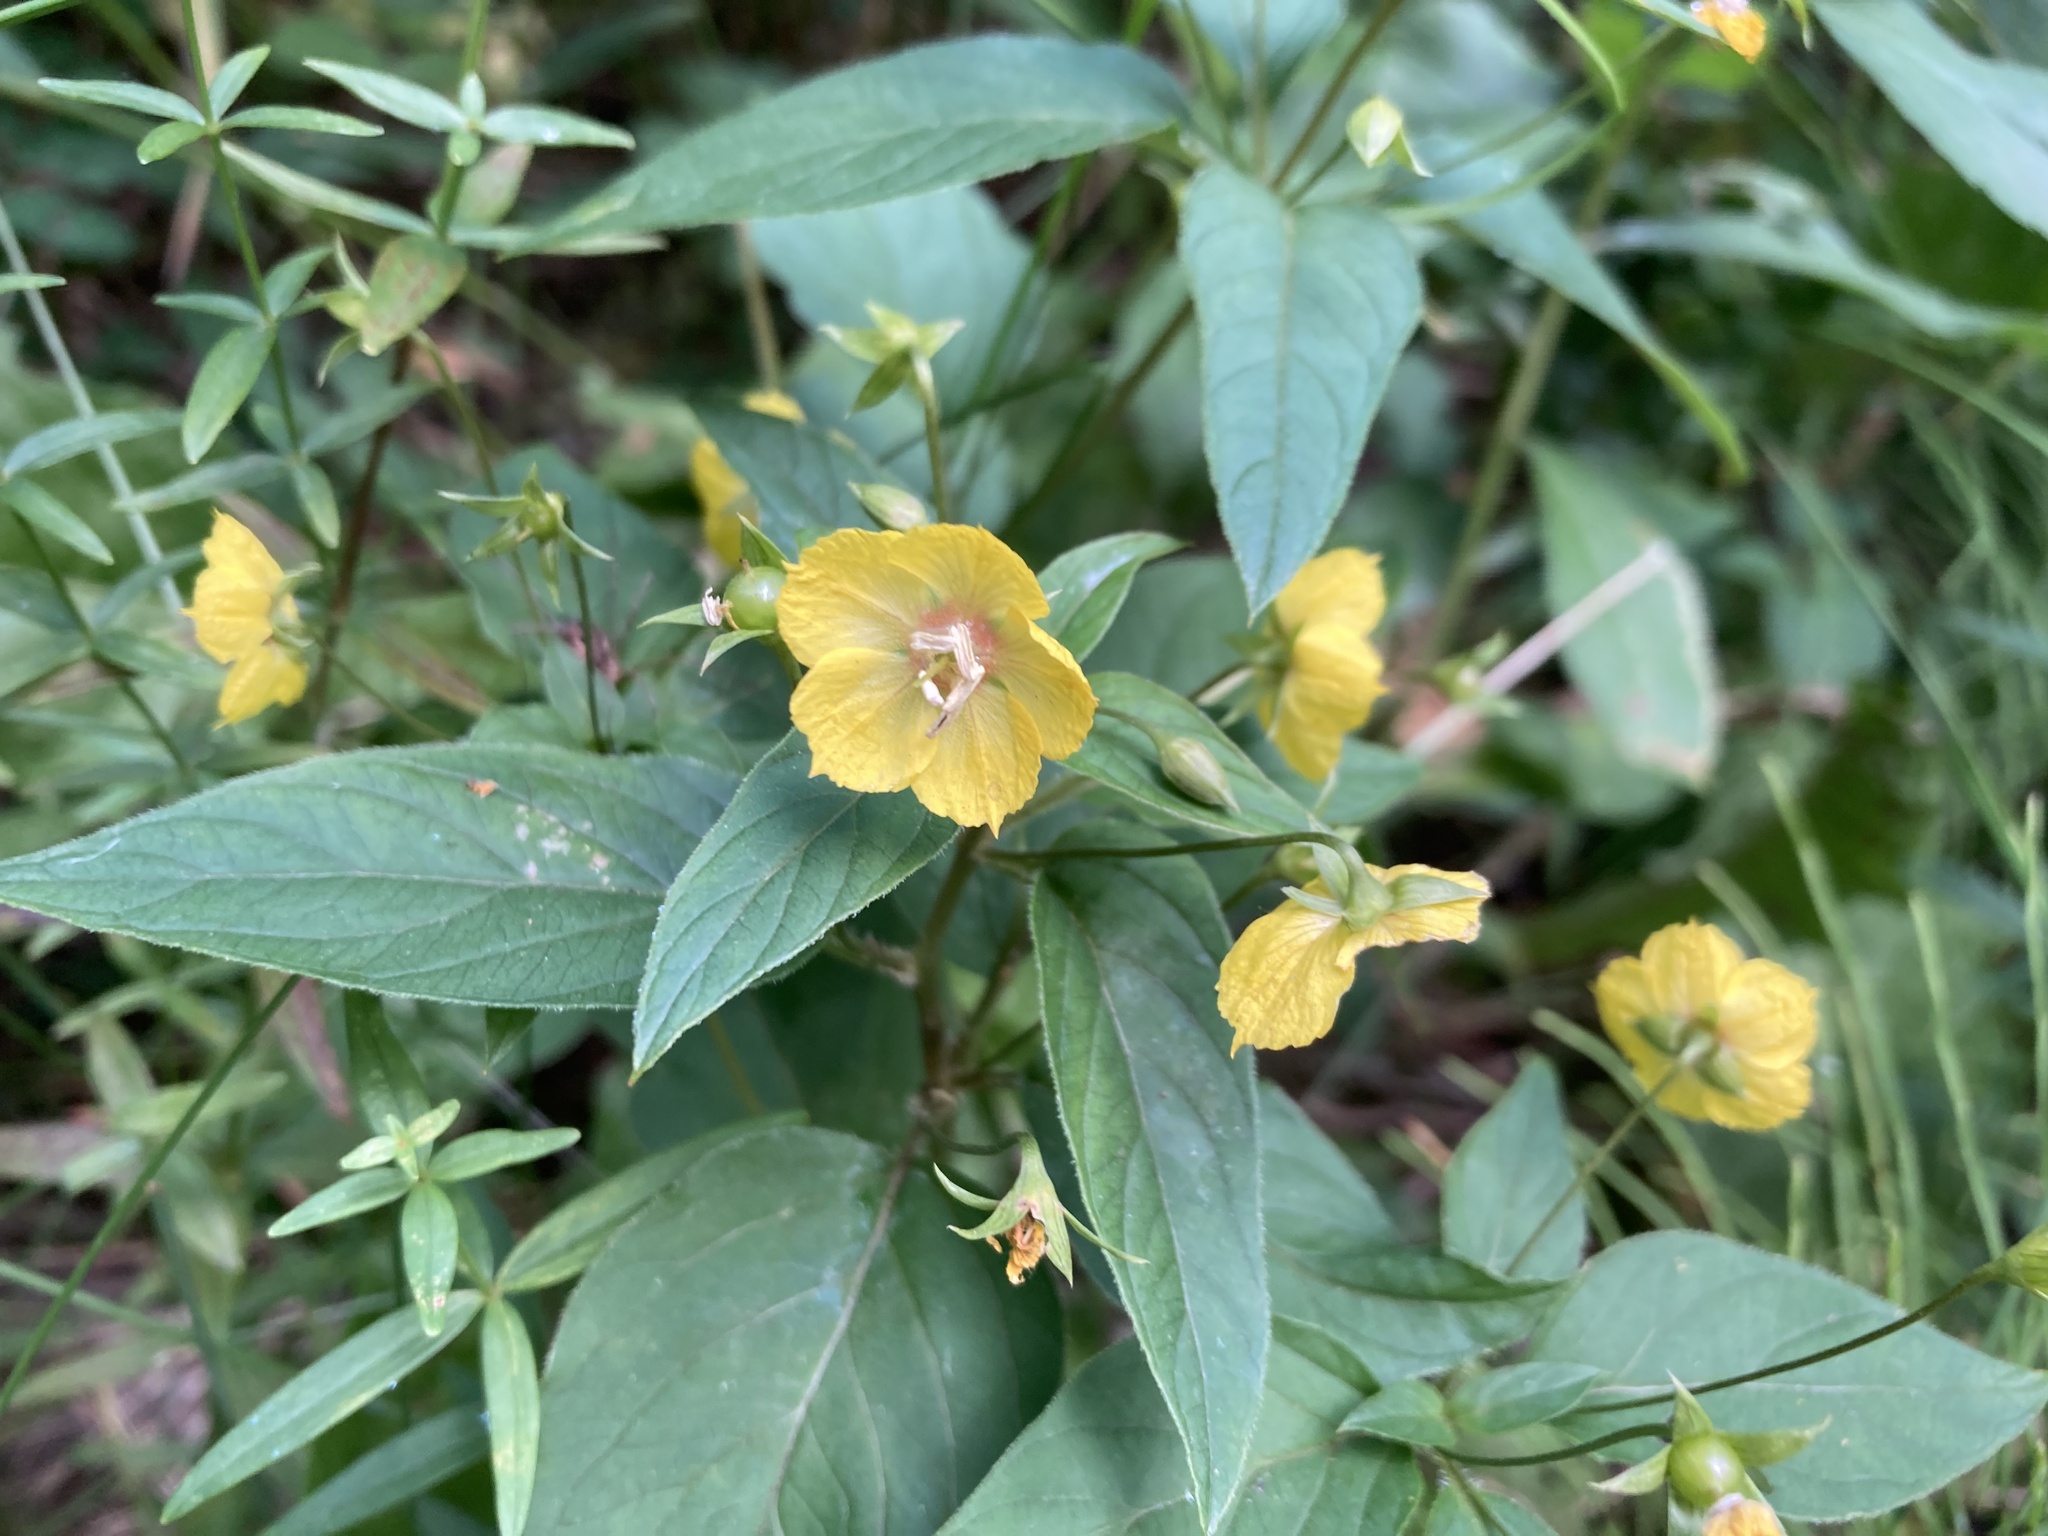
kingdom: Plantae
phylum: Tracheophyta
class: Magnoliopsida
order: Ericales
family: Primulaceae
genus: Lysimachia
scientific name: Lysimachia ciliata
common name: Fringed loosestrife
